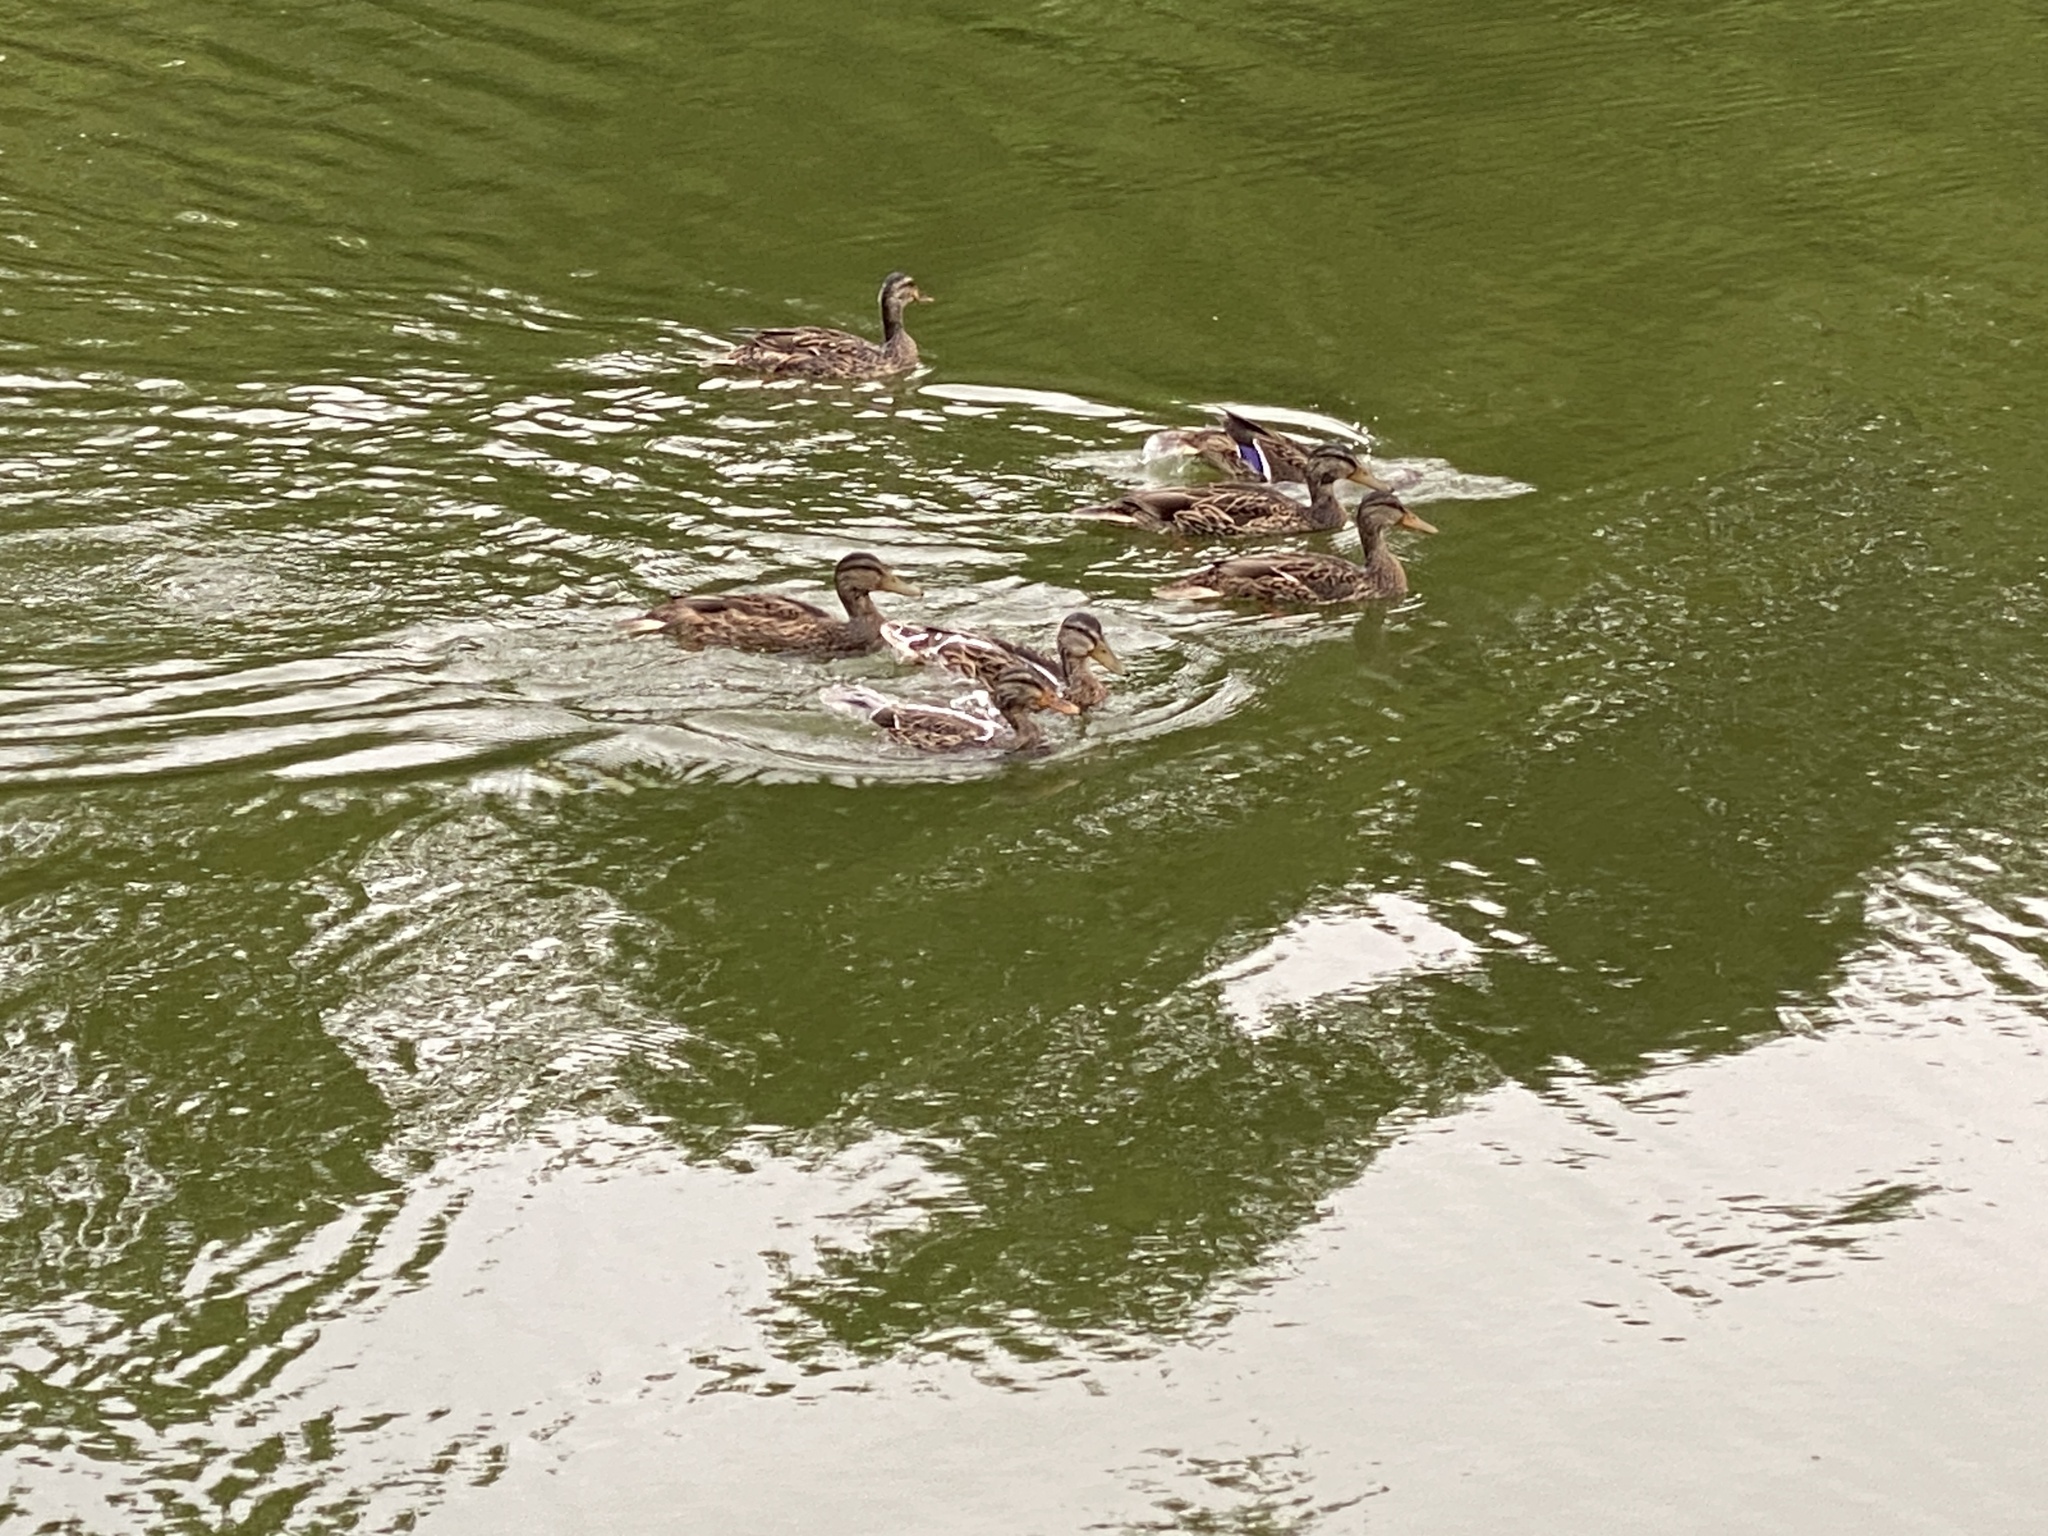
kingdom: Animalia
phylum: Chordata
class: Aves
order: Anseriformes
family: Anatidae
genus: Anas
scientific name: Anas platyrhynchos
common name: Mallard
